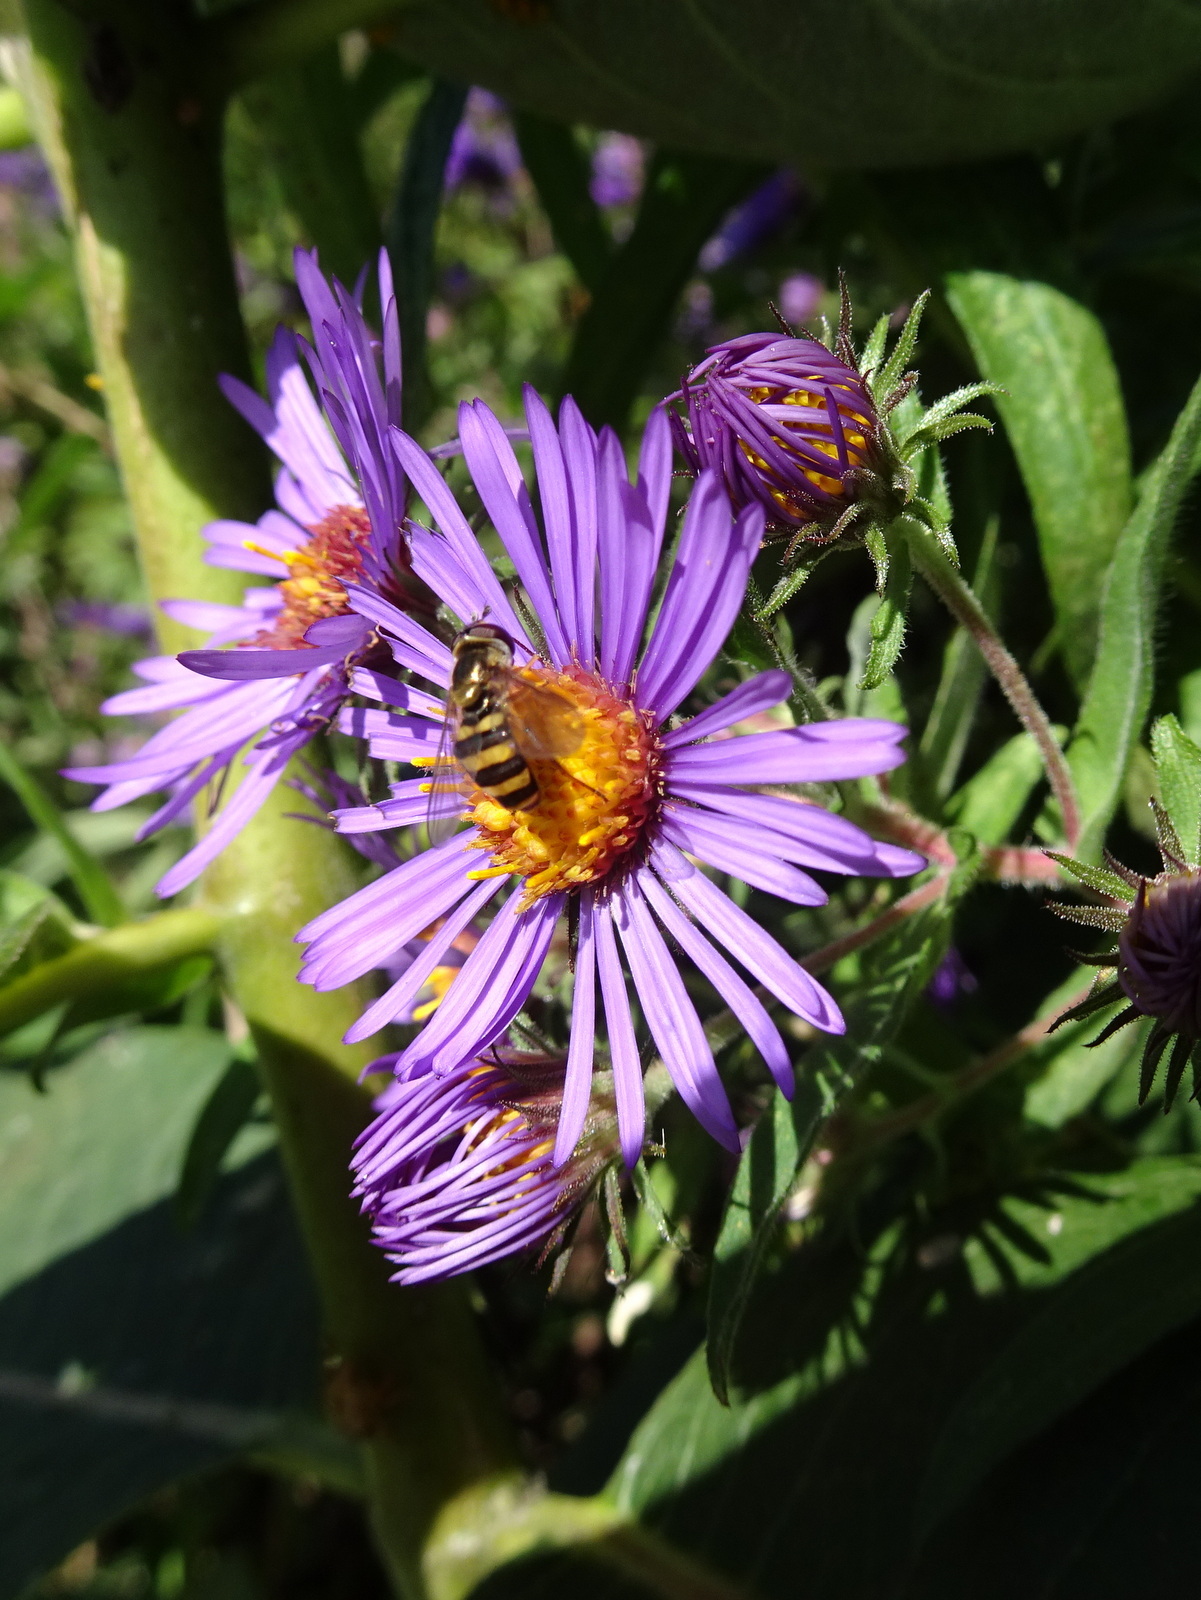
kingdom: Plantae
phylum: Tracheophyta
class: Magnoliopsida
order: Asterales
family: Asteraceae
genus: Symphyotrichum
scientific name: Symphyotrichum novae-angliae
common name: Michaelmas daisy
